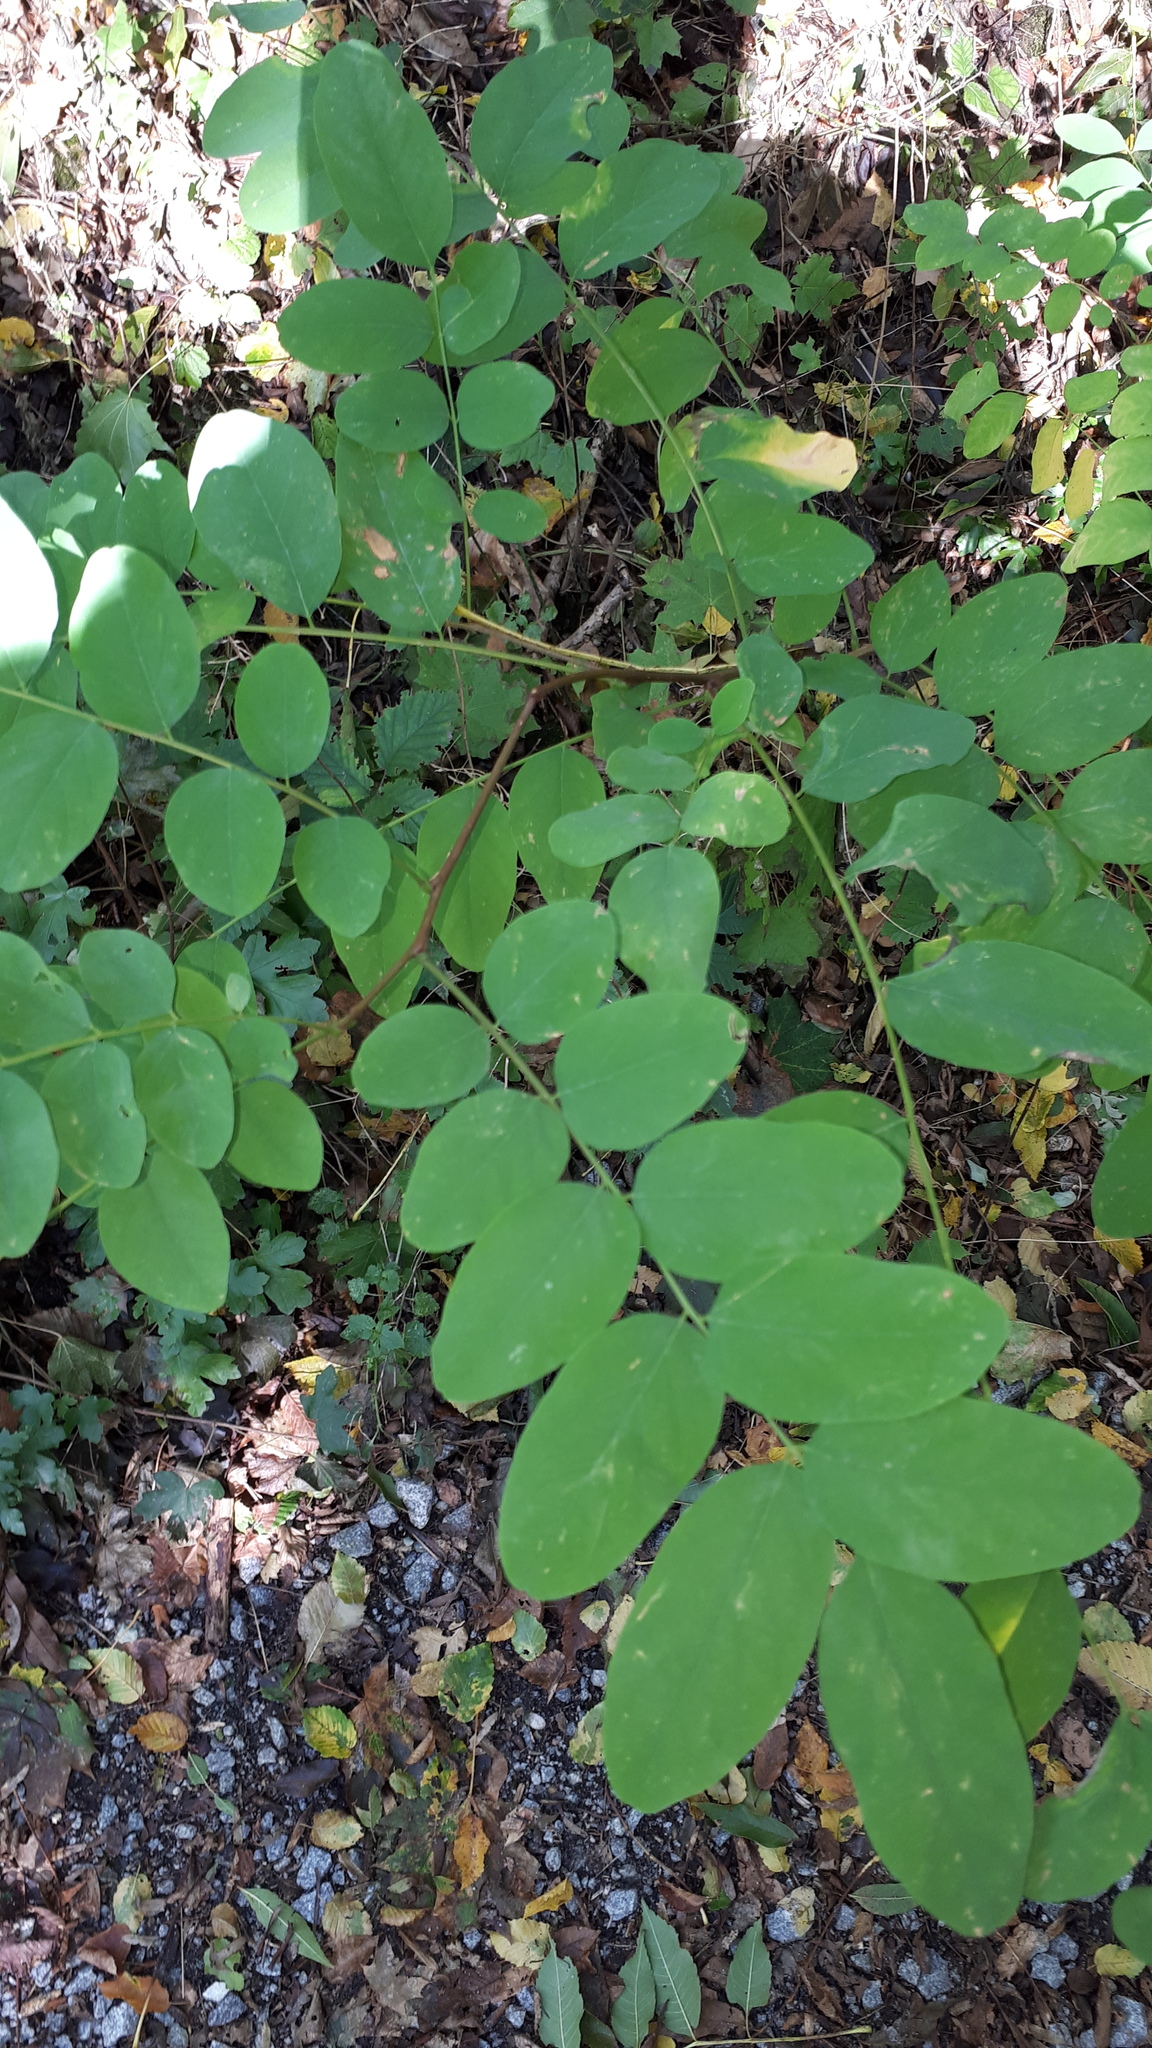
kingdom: Plantae
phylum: Tracheophyta
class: Magnoliopsida
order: Fabales
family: Fabaceae
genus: Robinia
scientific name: Robinia pseudoacacia
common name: Black locust
